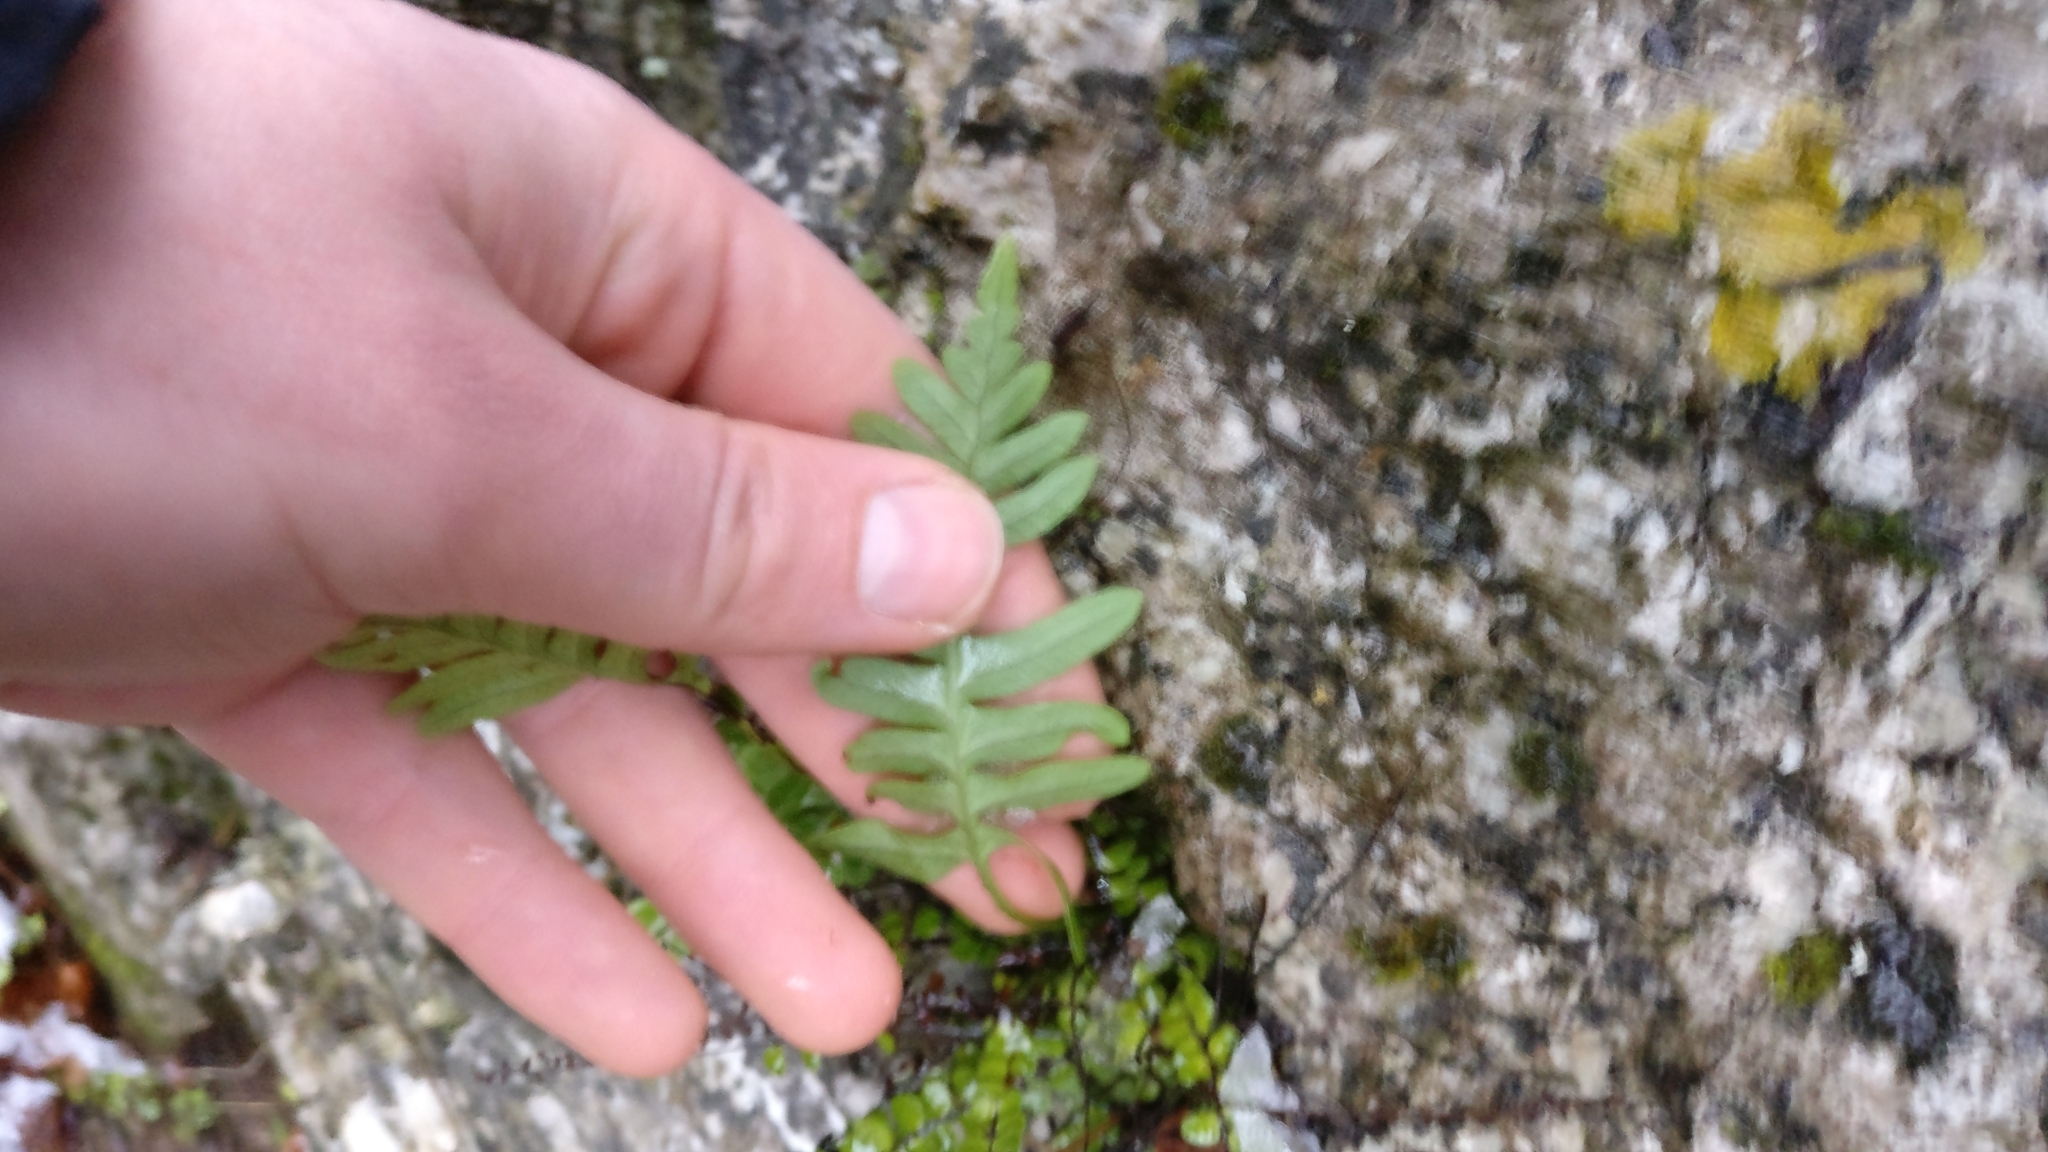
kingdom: Plantae
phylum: Tracheophyta
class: Polypodiopsida
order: Polypodiales
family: Polypodiaceae
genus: Polypodium
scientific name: Polypodium
